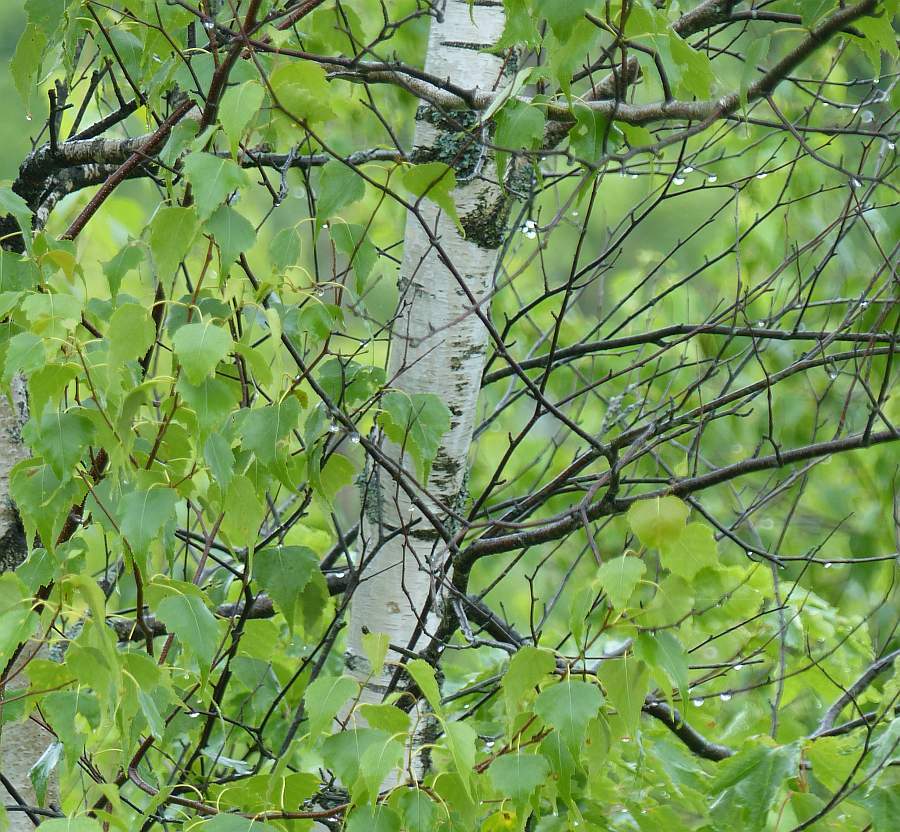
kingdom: Plantae
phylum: Tracheophyta
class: Magnoliopsida
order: Fagales
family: Betulaceae
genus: Betula
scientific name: Betula populifolia
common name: Fire birch
